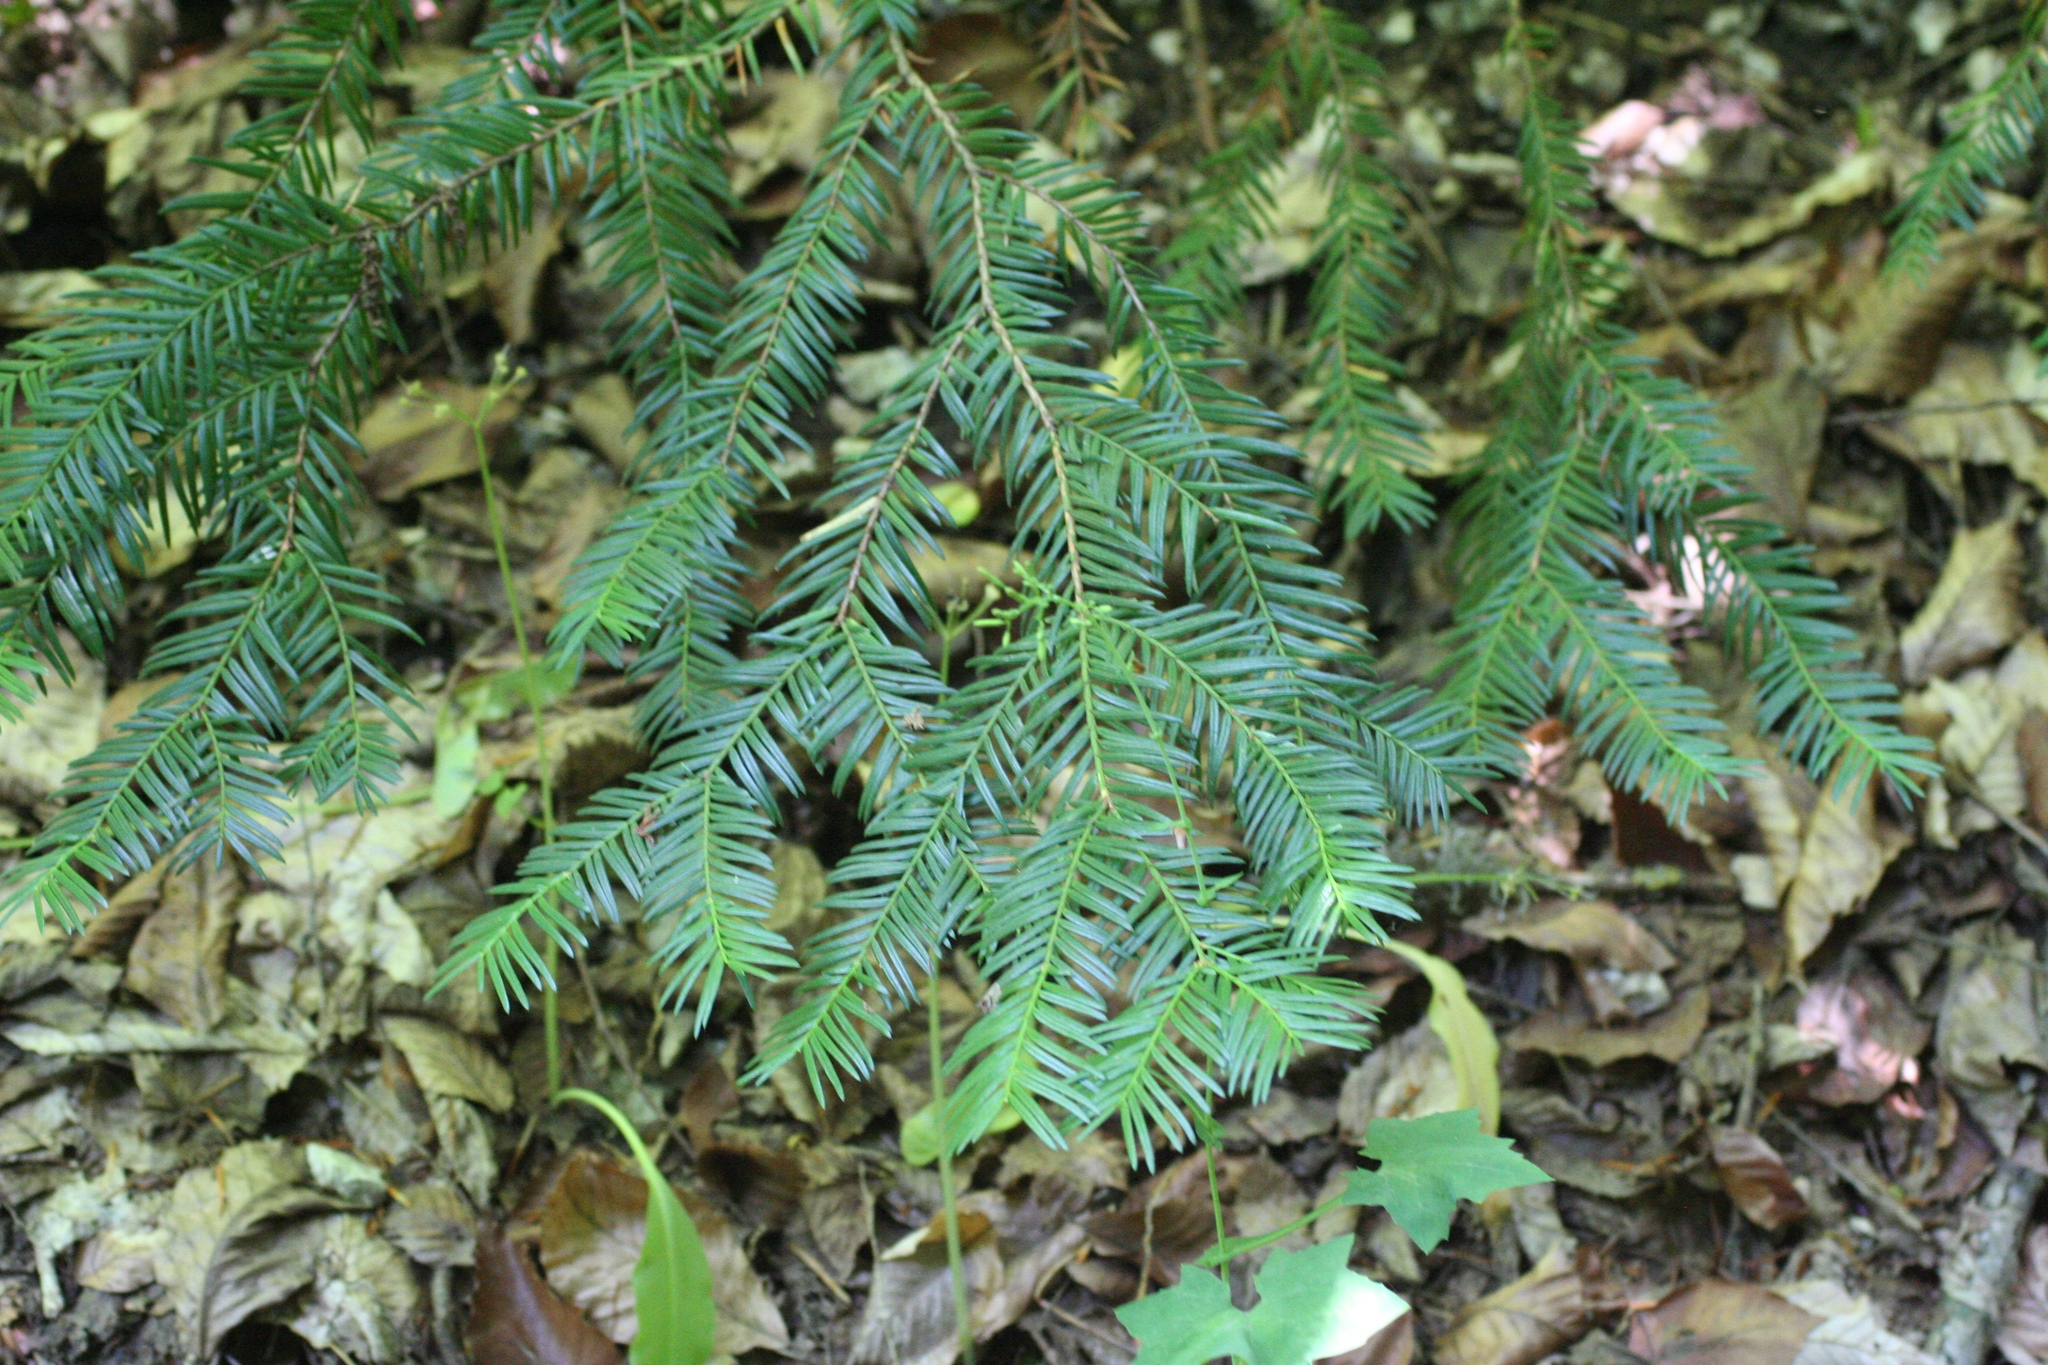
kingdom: Plantae
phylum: Tracheophyta
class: Pinopsida
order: Pinales
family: Taxaceae
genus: Taxus
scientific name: Taxus baccata
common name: Yew
